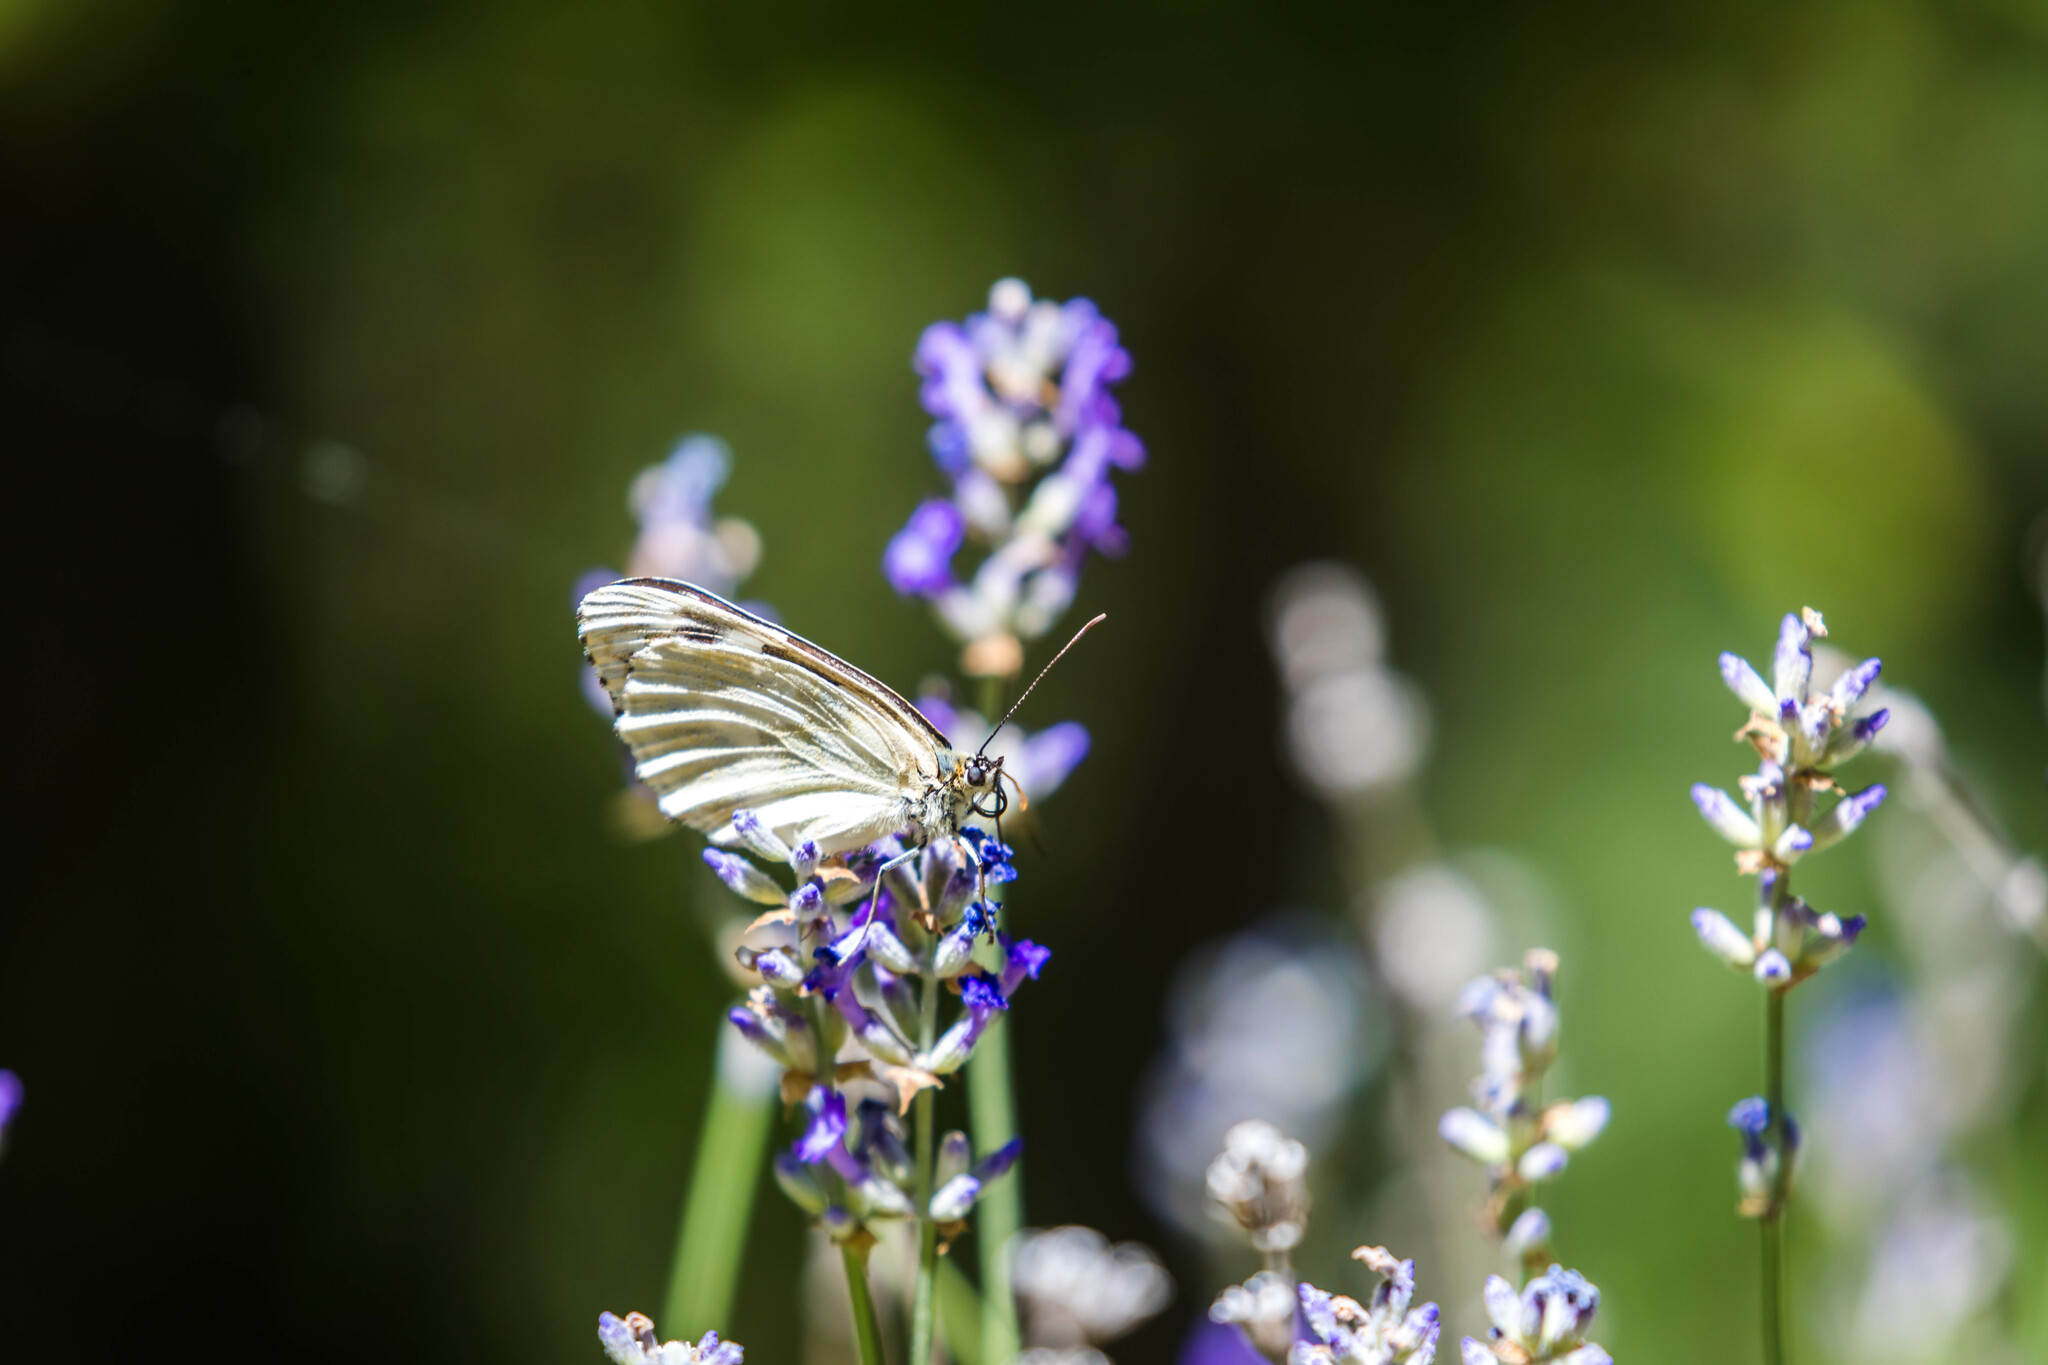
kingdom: Animalia
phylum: Arthropoda
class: Insecta
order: Lepidoptera
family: Nymphalidae
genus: Melanargia
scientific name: Melanargia galathea
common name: Marbled white
